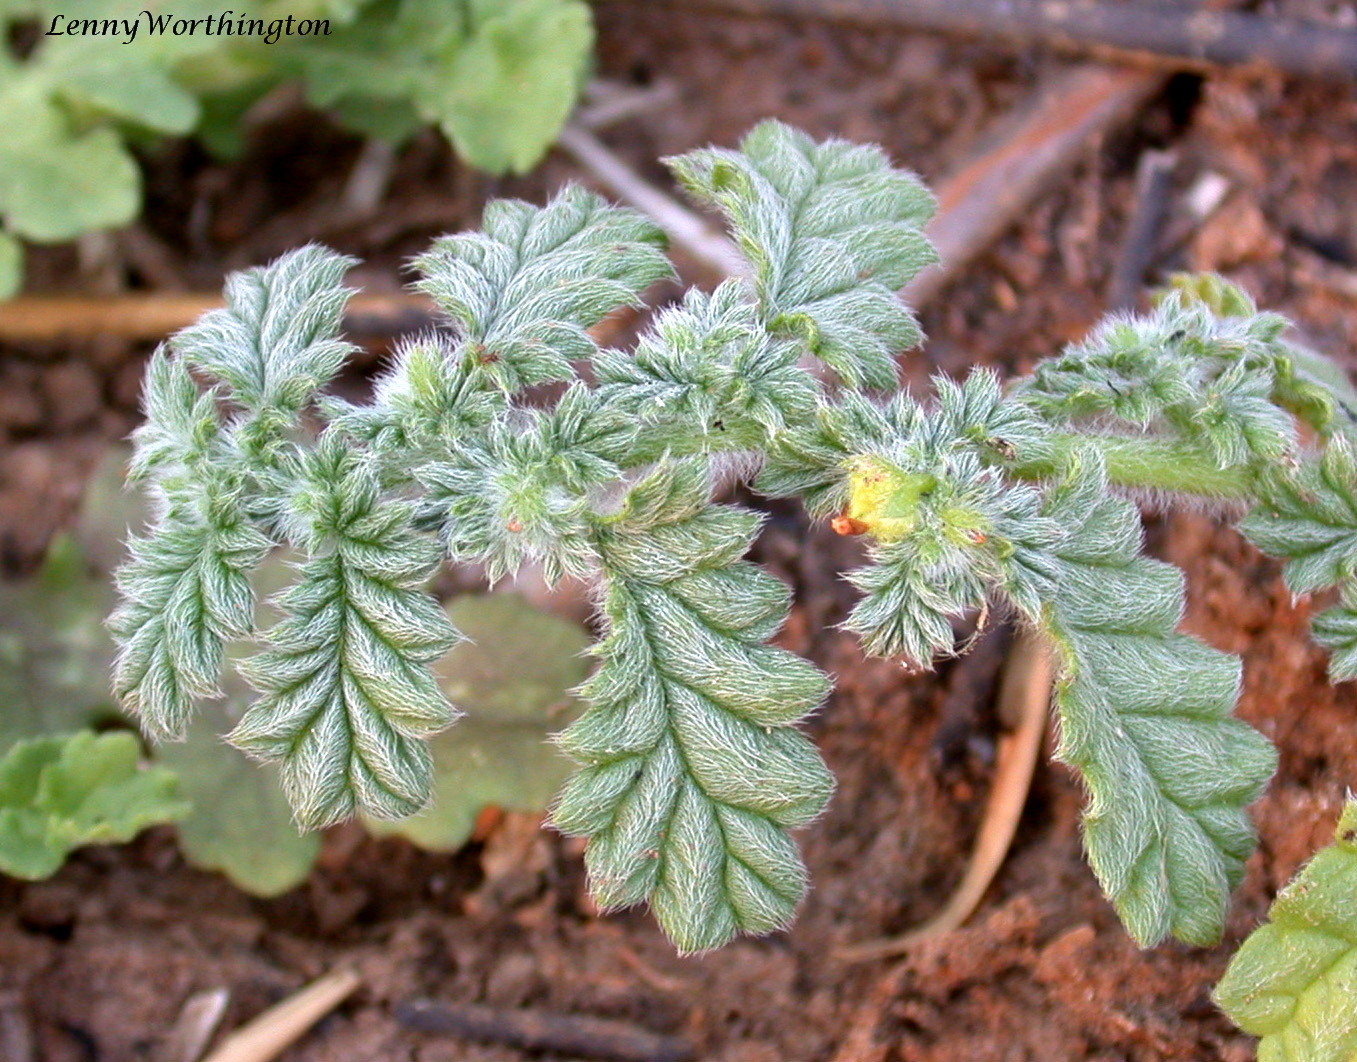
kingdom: Plantae
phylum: Tracheophyta
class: Magnoliopsida
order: Boraginales
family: Coldeniaceae
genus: Coldenia
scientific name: Coldenia procumbens
